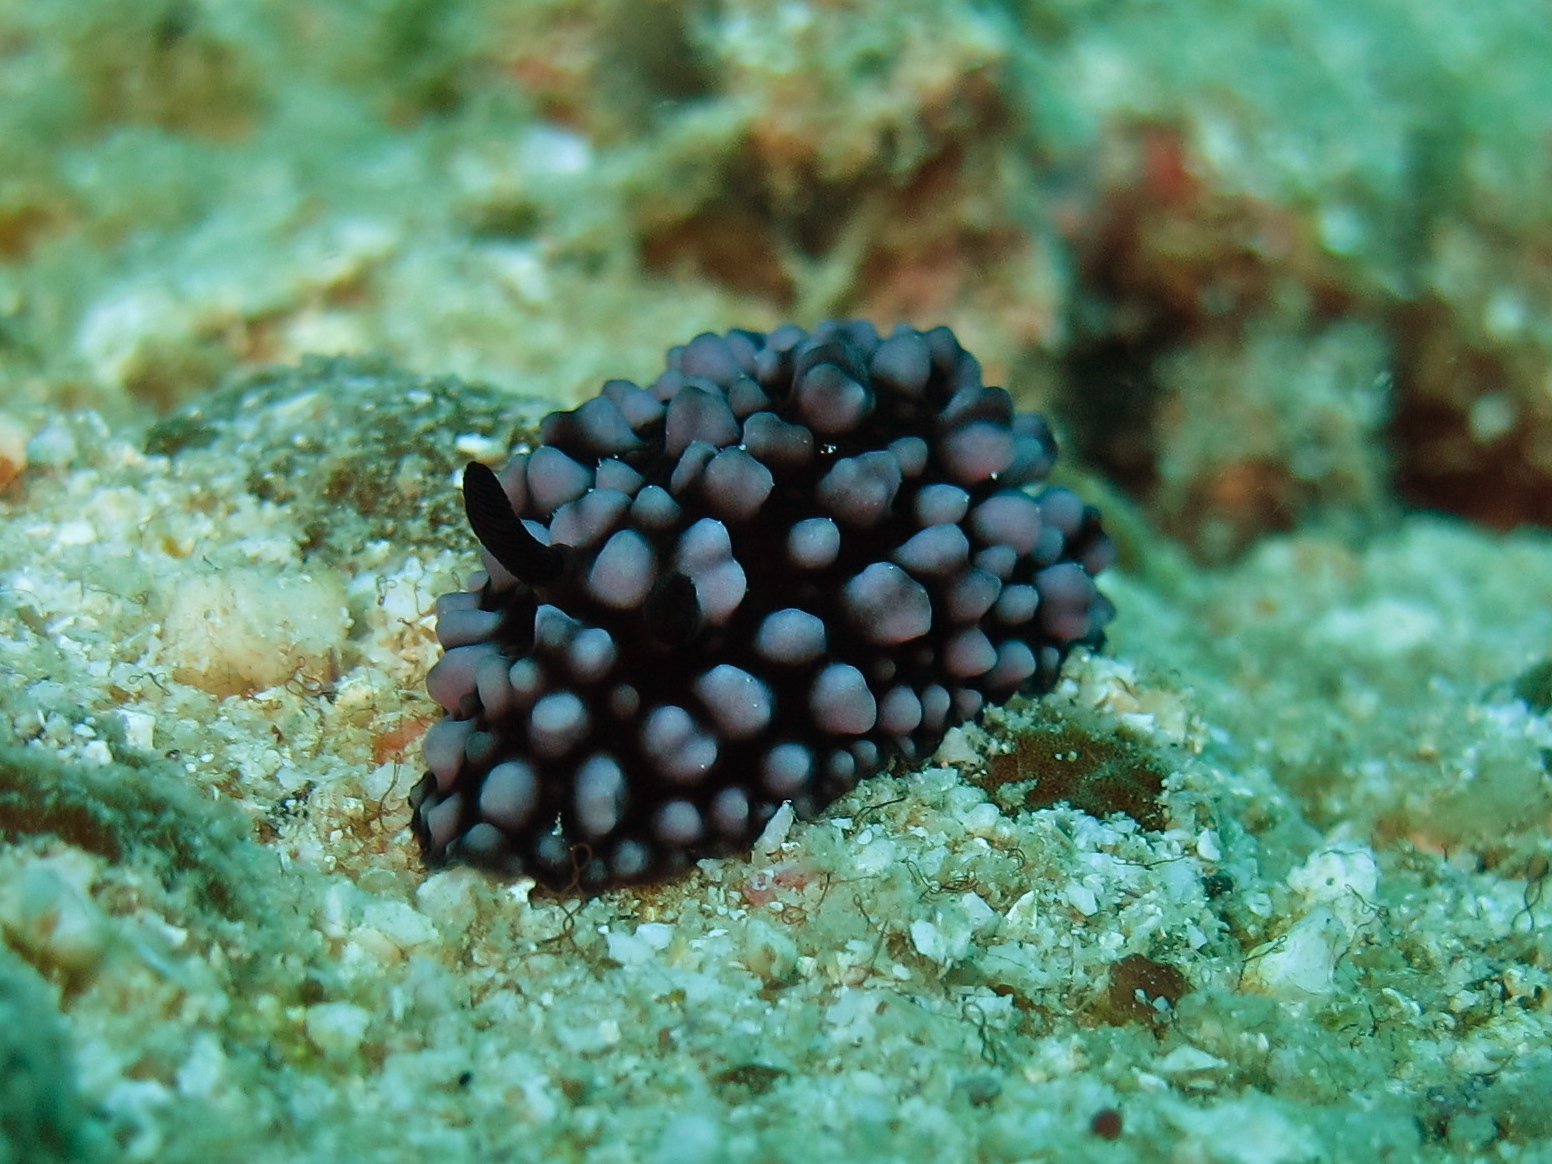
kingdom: Animalia
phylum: Mollusca
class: Gastropoda
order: Nudibranchia
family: Phyllidiidae
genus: Phyllidiella
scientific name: Phyllidiella nigra
